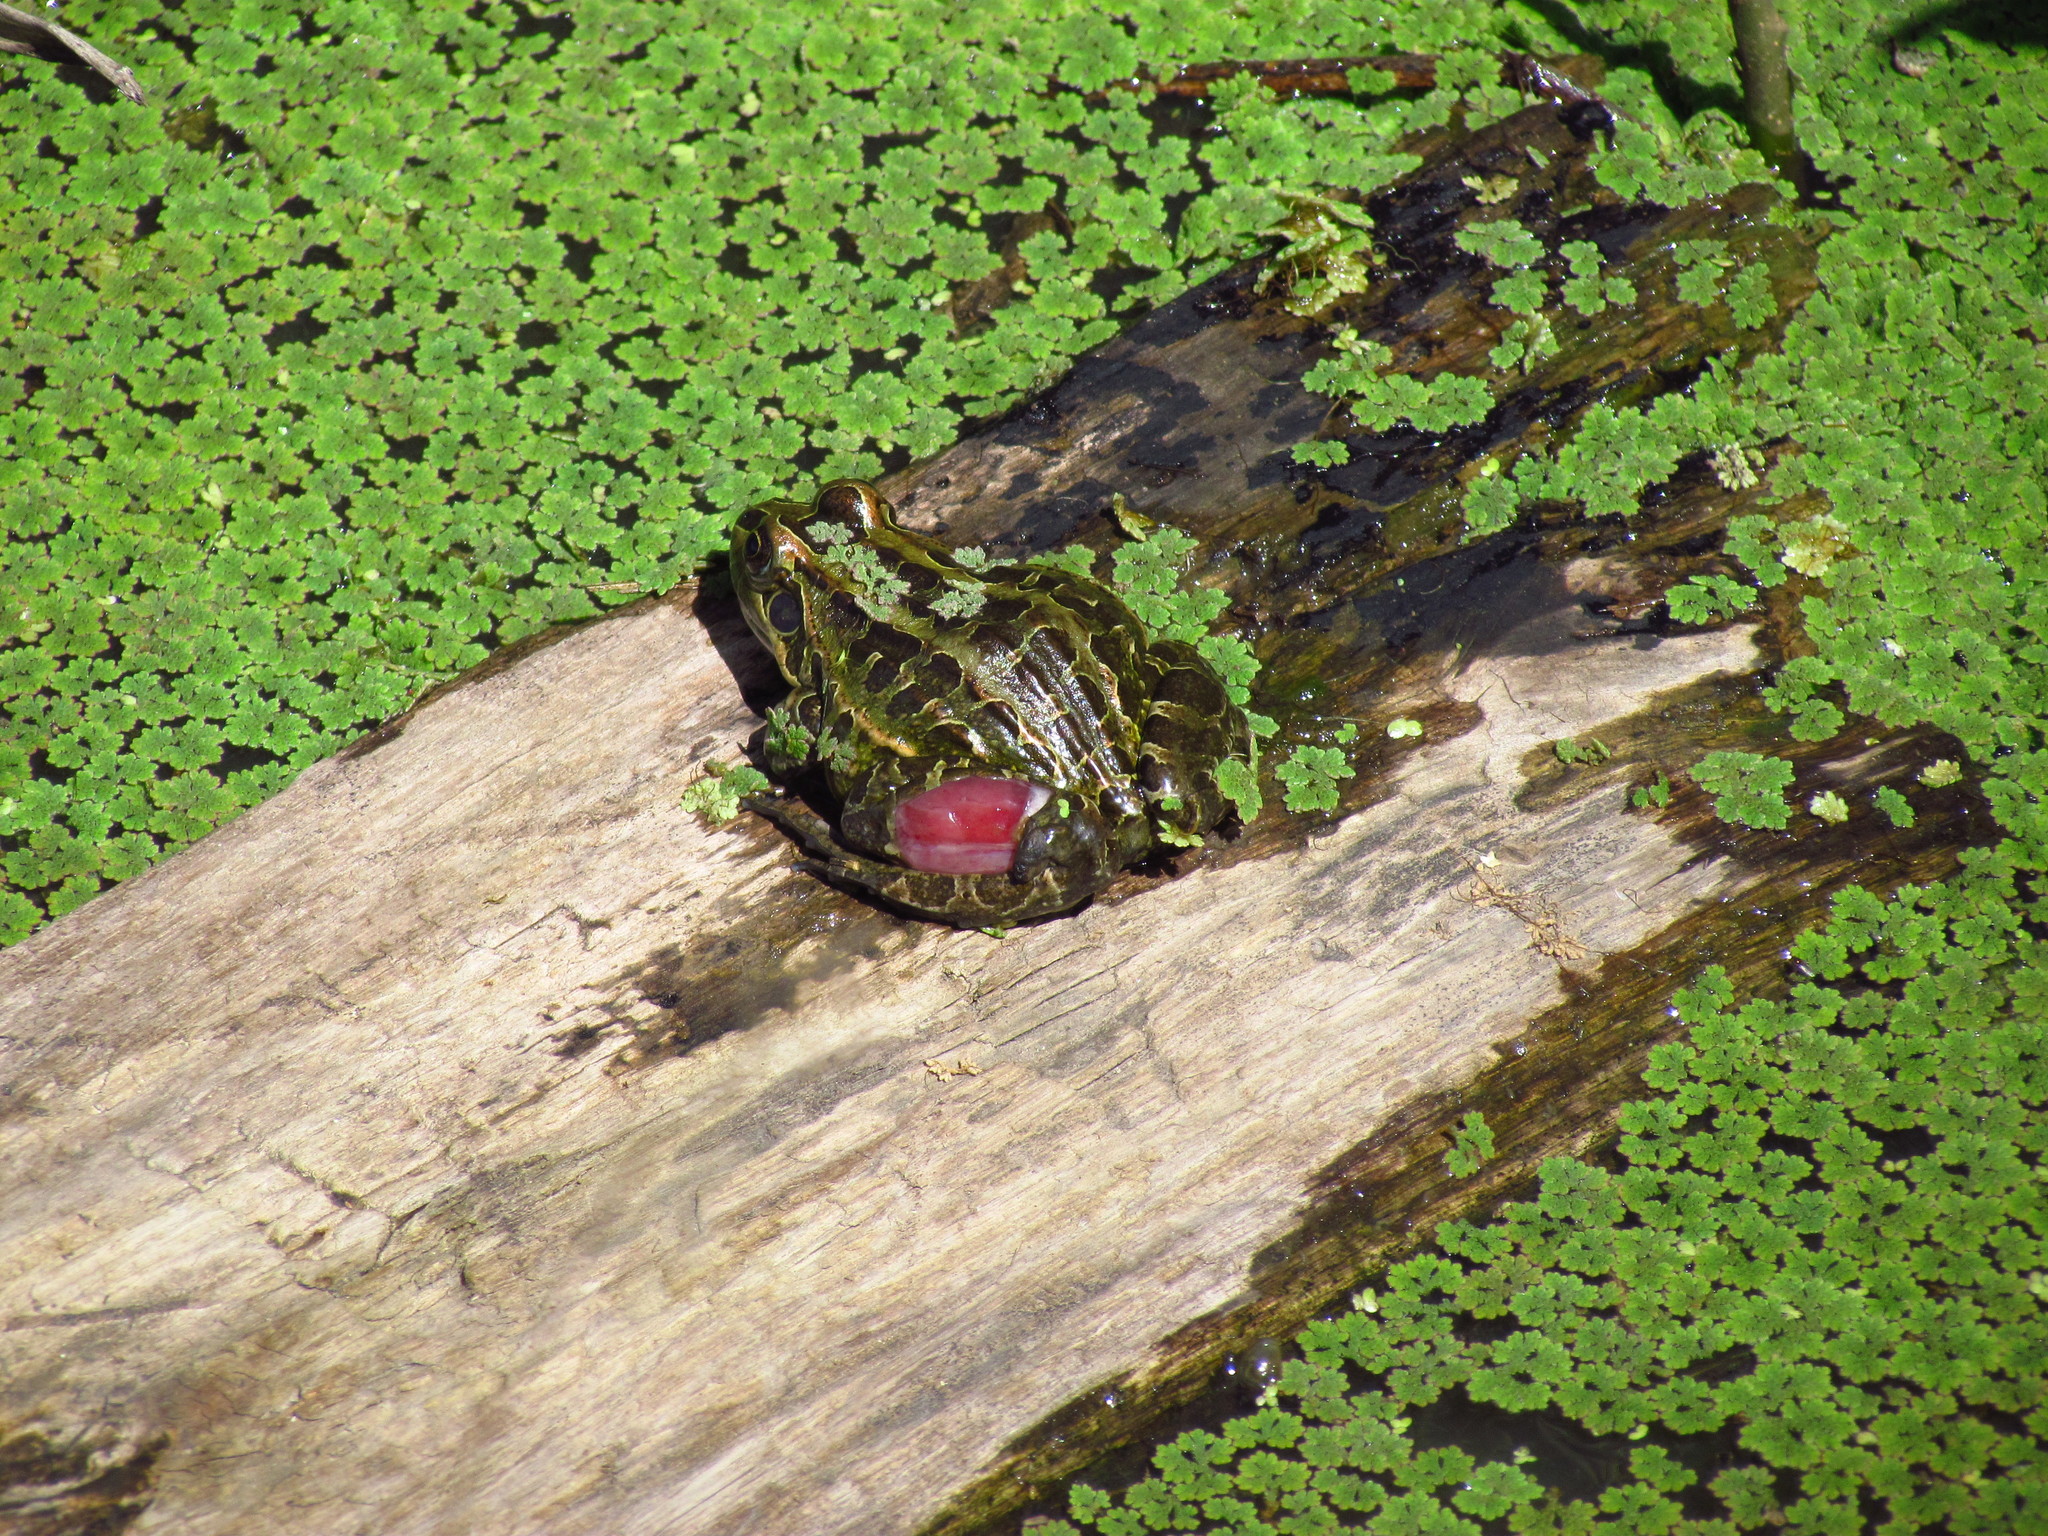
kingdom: Animalia
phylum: Chordata
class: Amphibia
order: Anura
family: Leptodactylidae
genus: Leptodactylus
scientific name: Leptodactylus luctator
